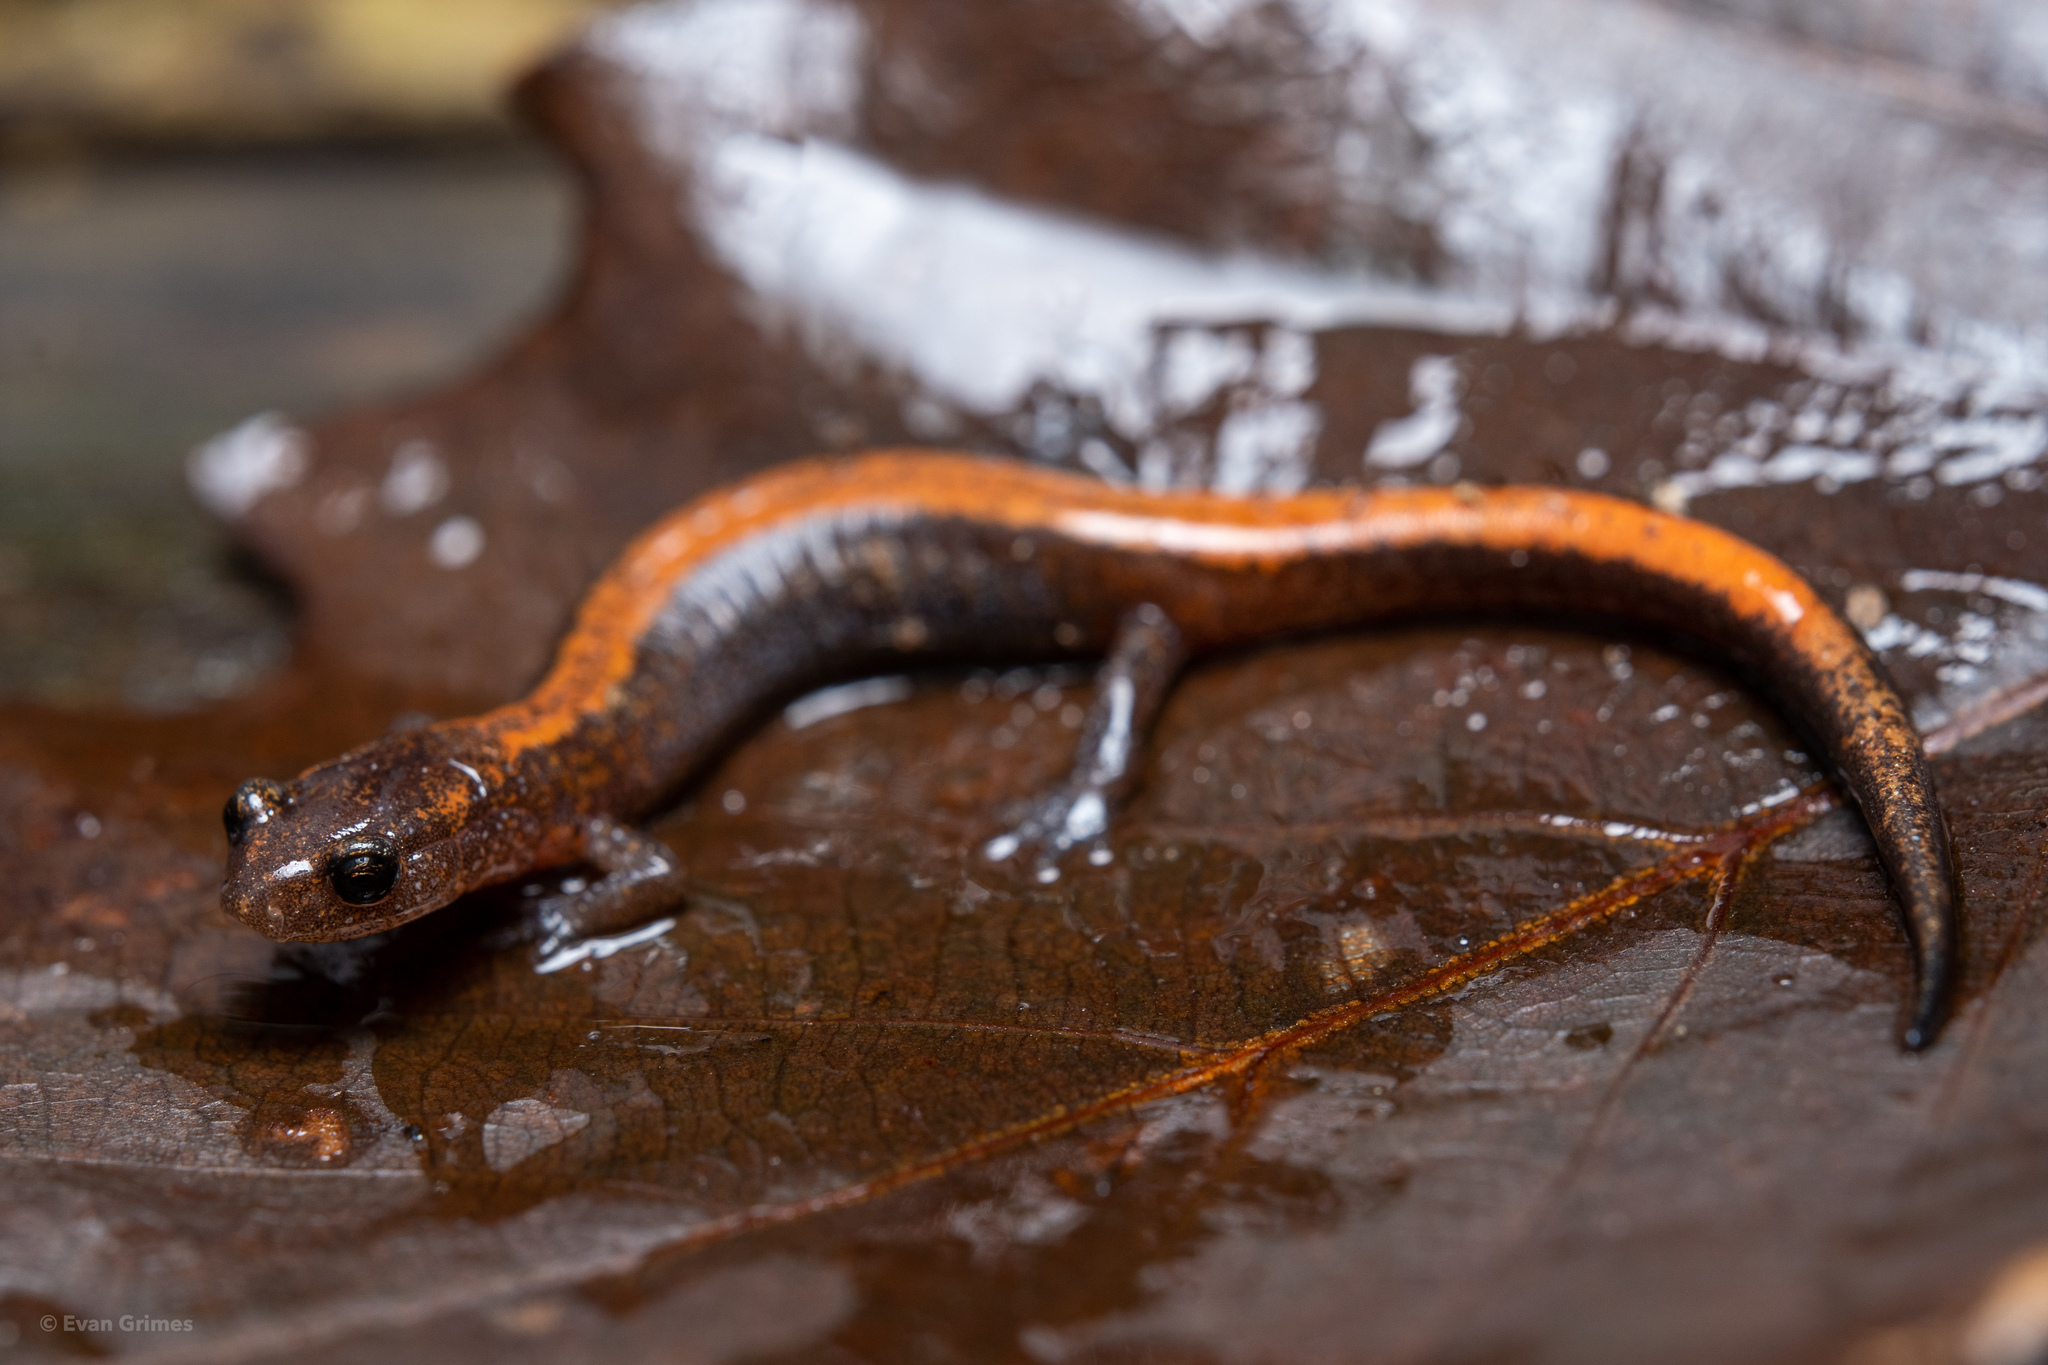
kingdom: Animalia
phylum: Chordata
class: Amphibia
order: Caudata
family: Plethodontidae
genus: Plethodon
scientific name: Plethodon dorsalis
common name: Northern zigzag salamander
